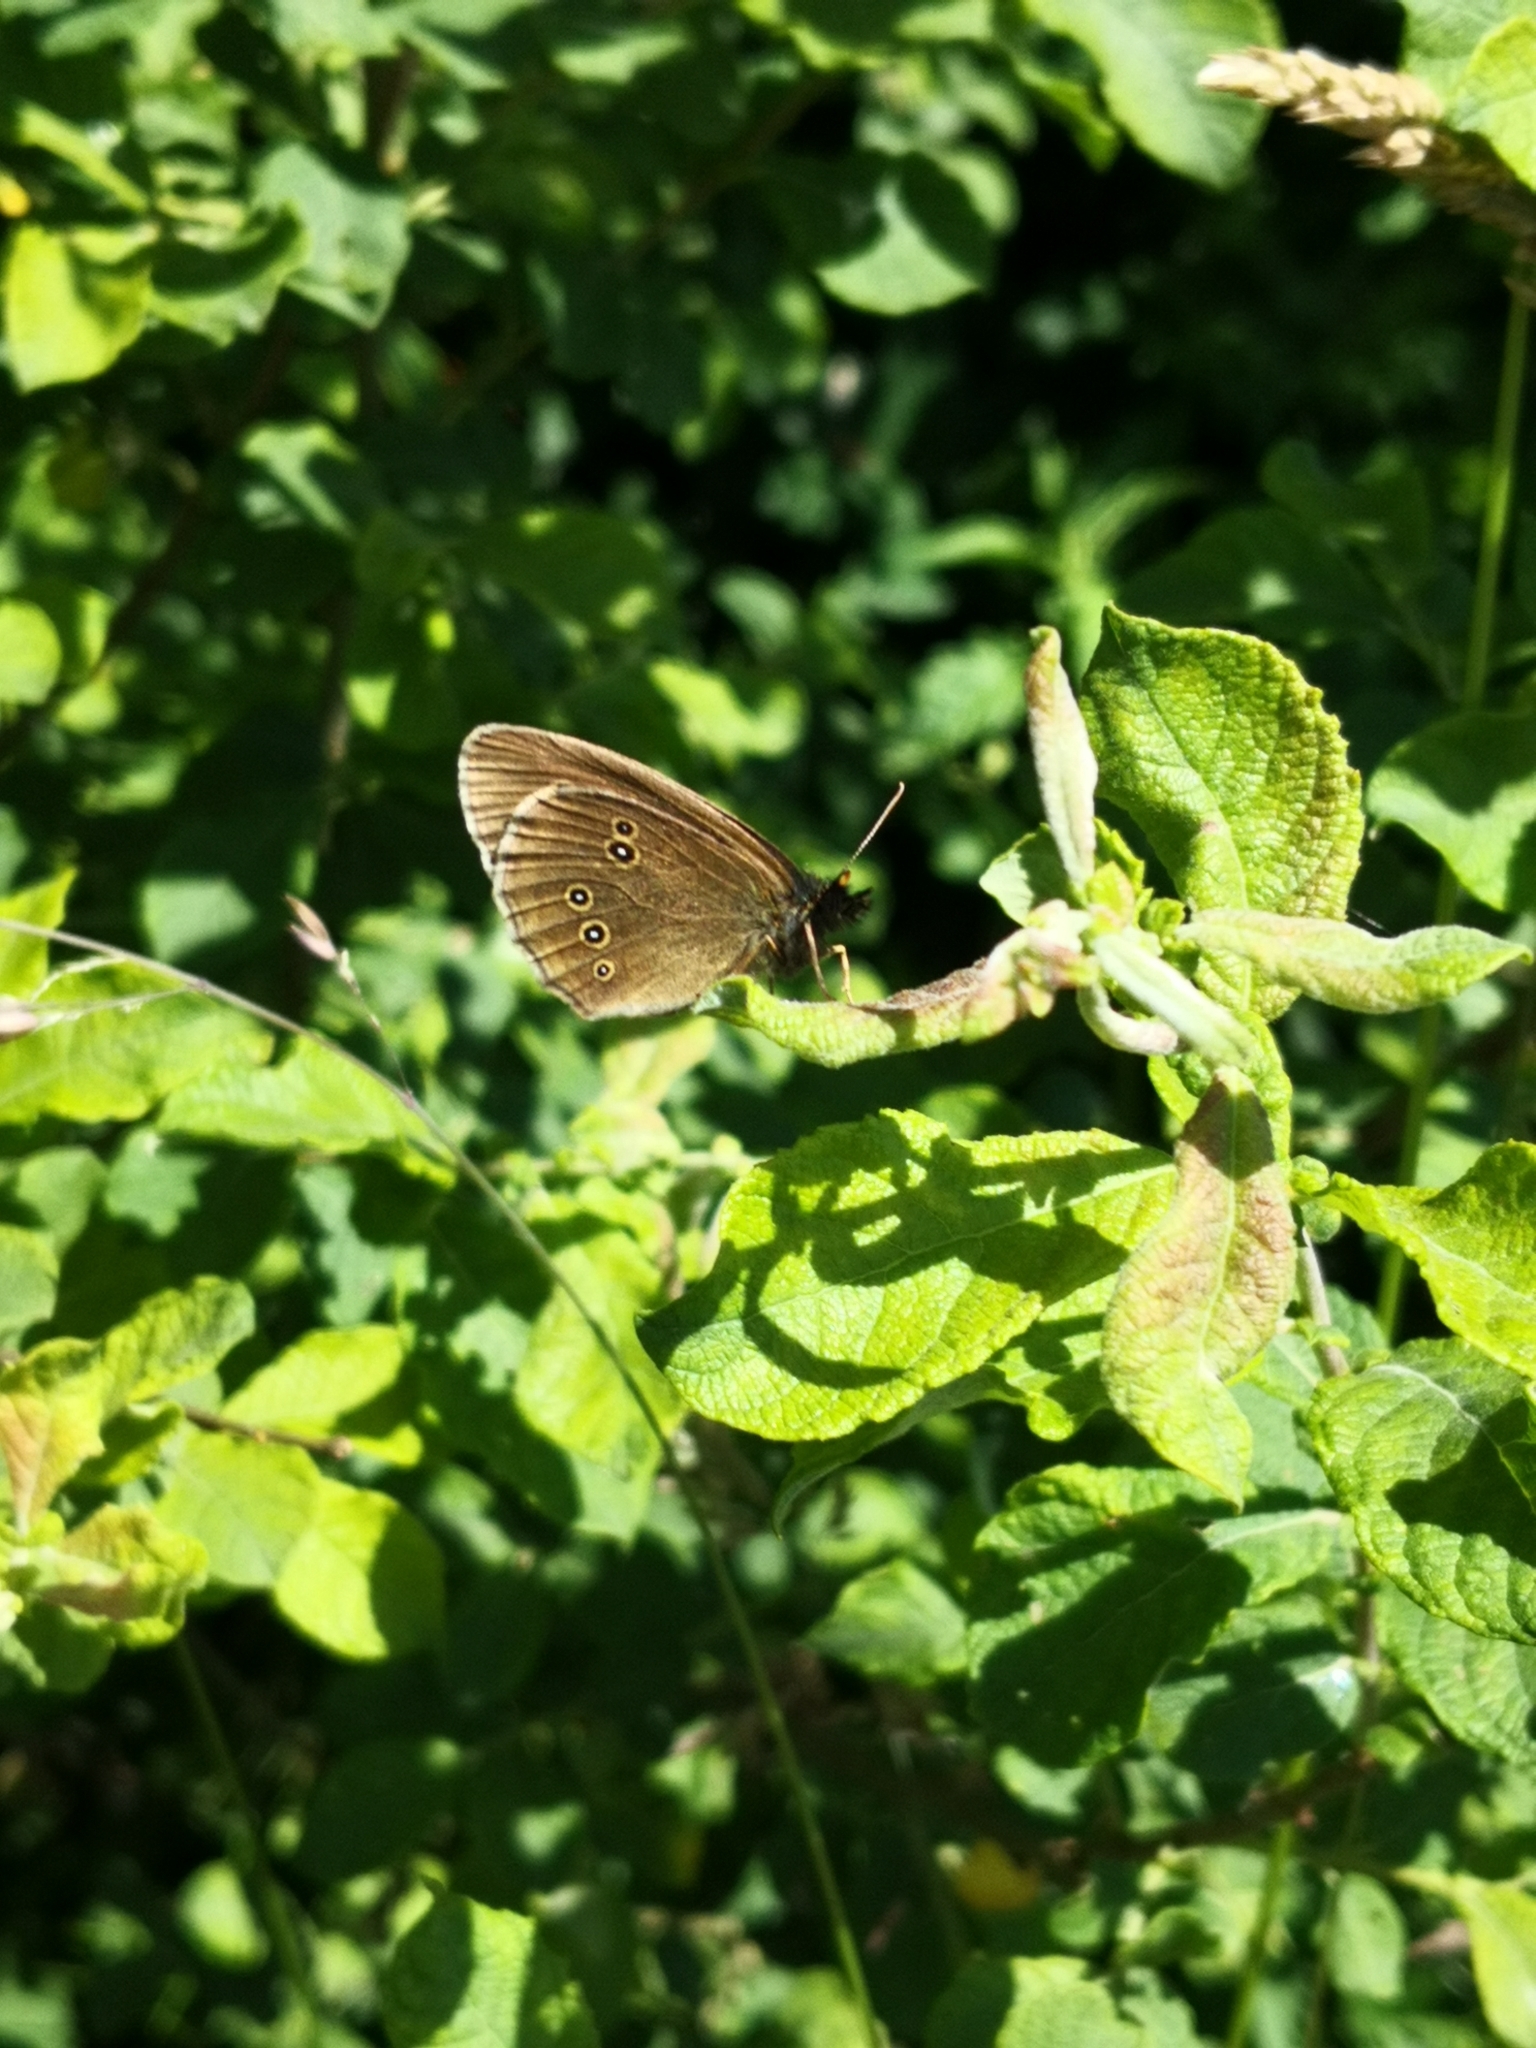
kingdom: Animalia
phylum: Arthropoda
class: Insecta
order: Lepidoptera
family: Nymphalidae
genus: Aphantopus
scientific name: Aphantopus hyperantus
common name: Ringlet
